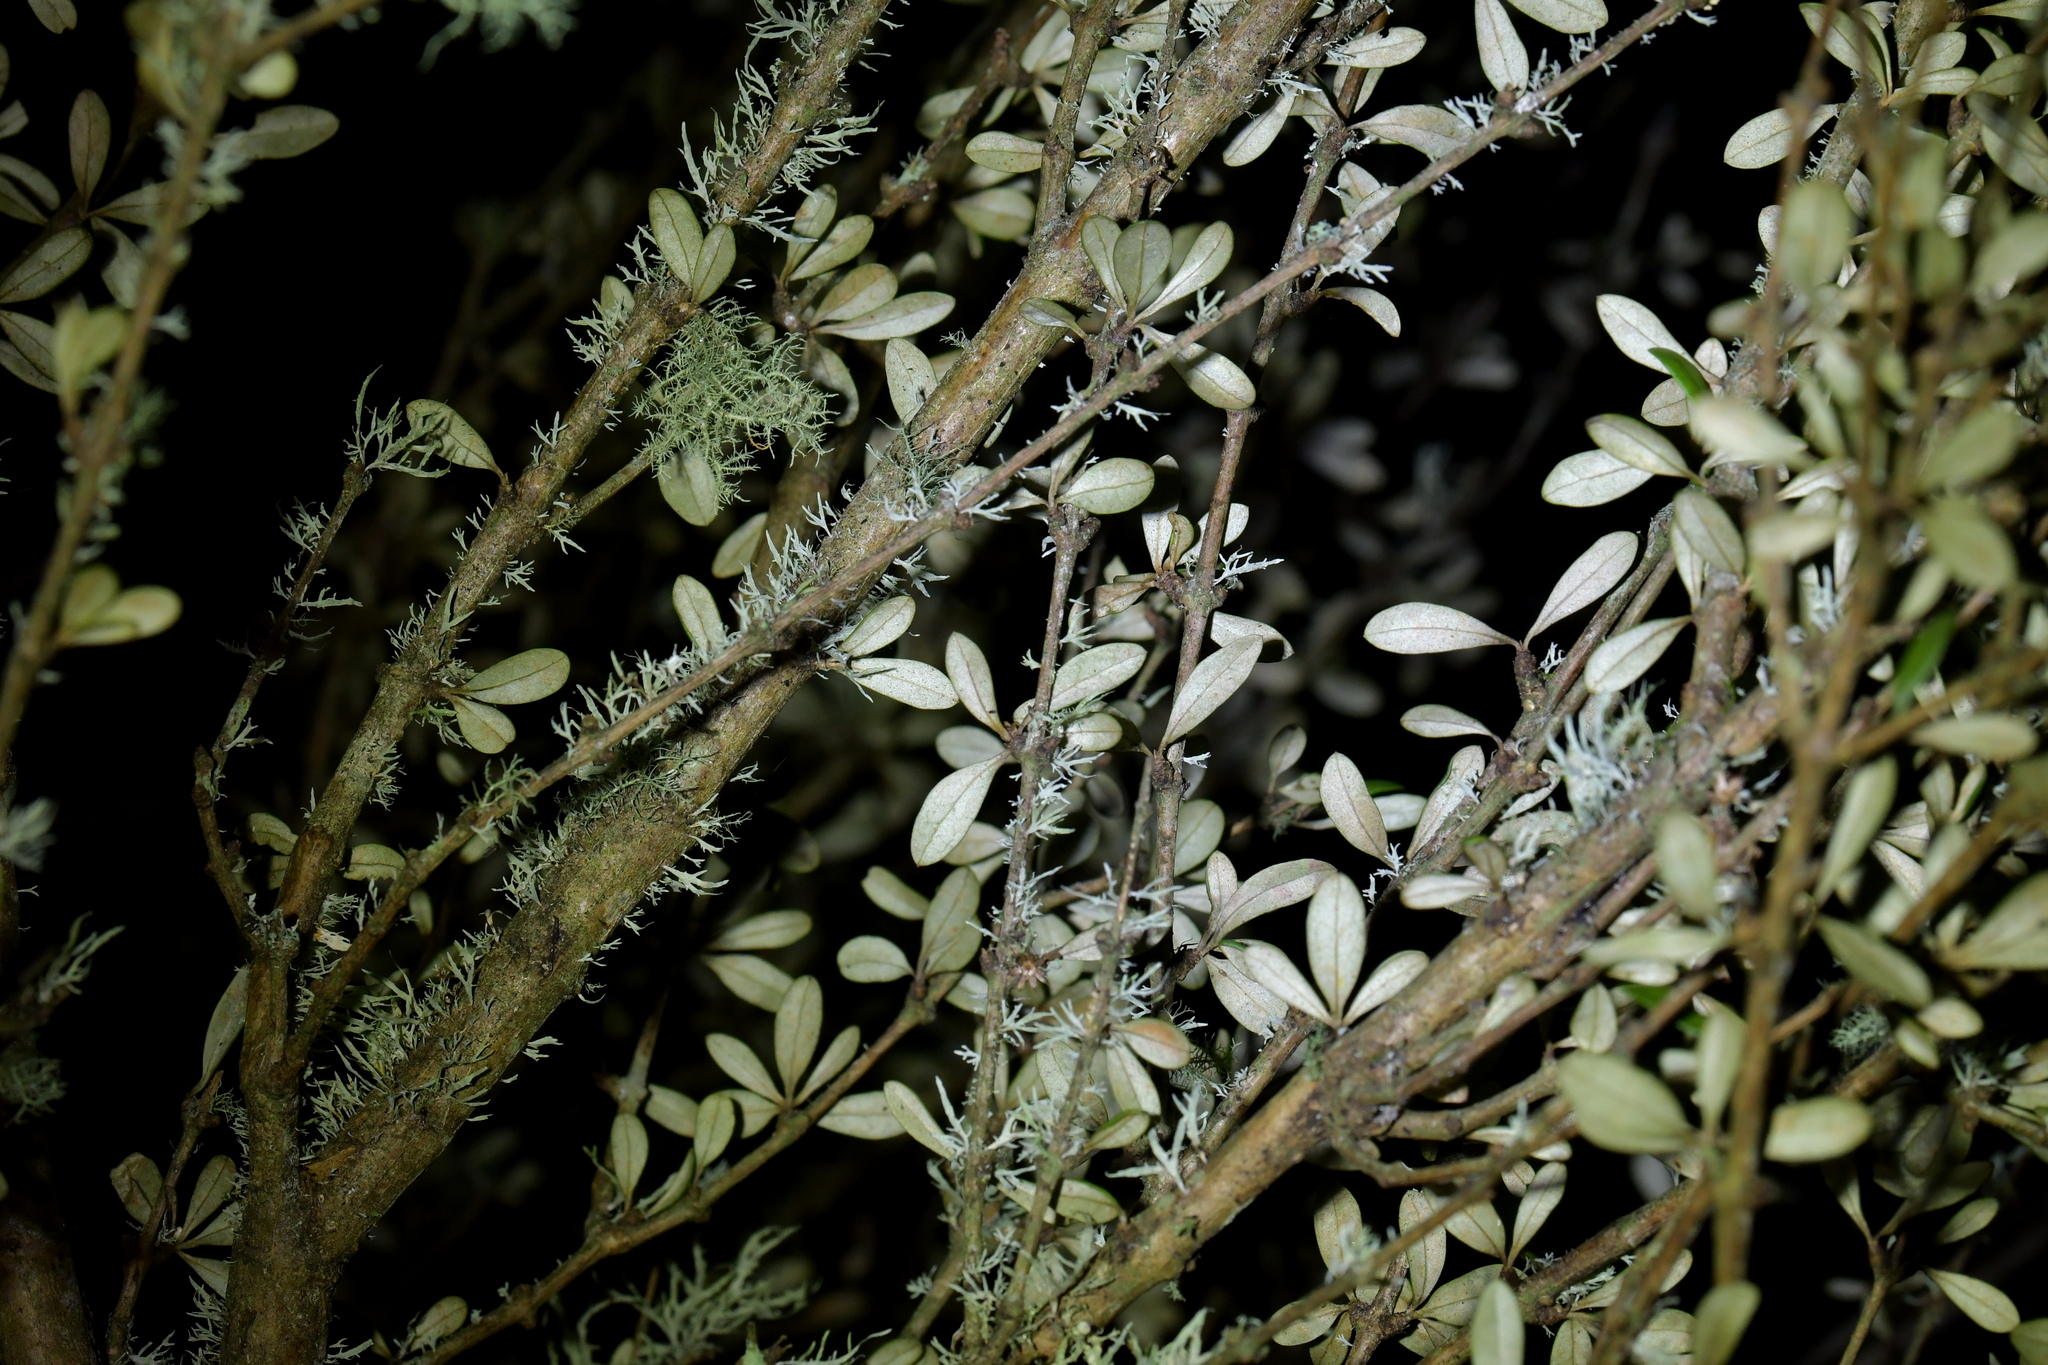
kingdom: Plantae
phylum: Tracheophyta
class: Magnoliopsida
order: Asterales
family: Asteraceae
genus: Olearia
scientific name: Olearia virgata
